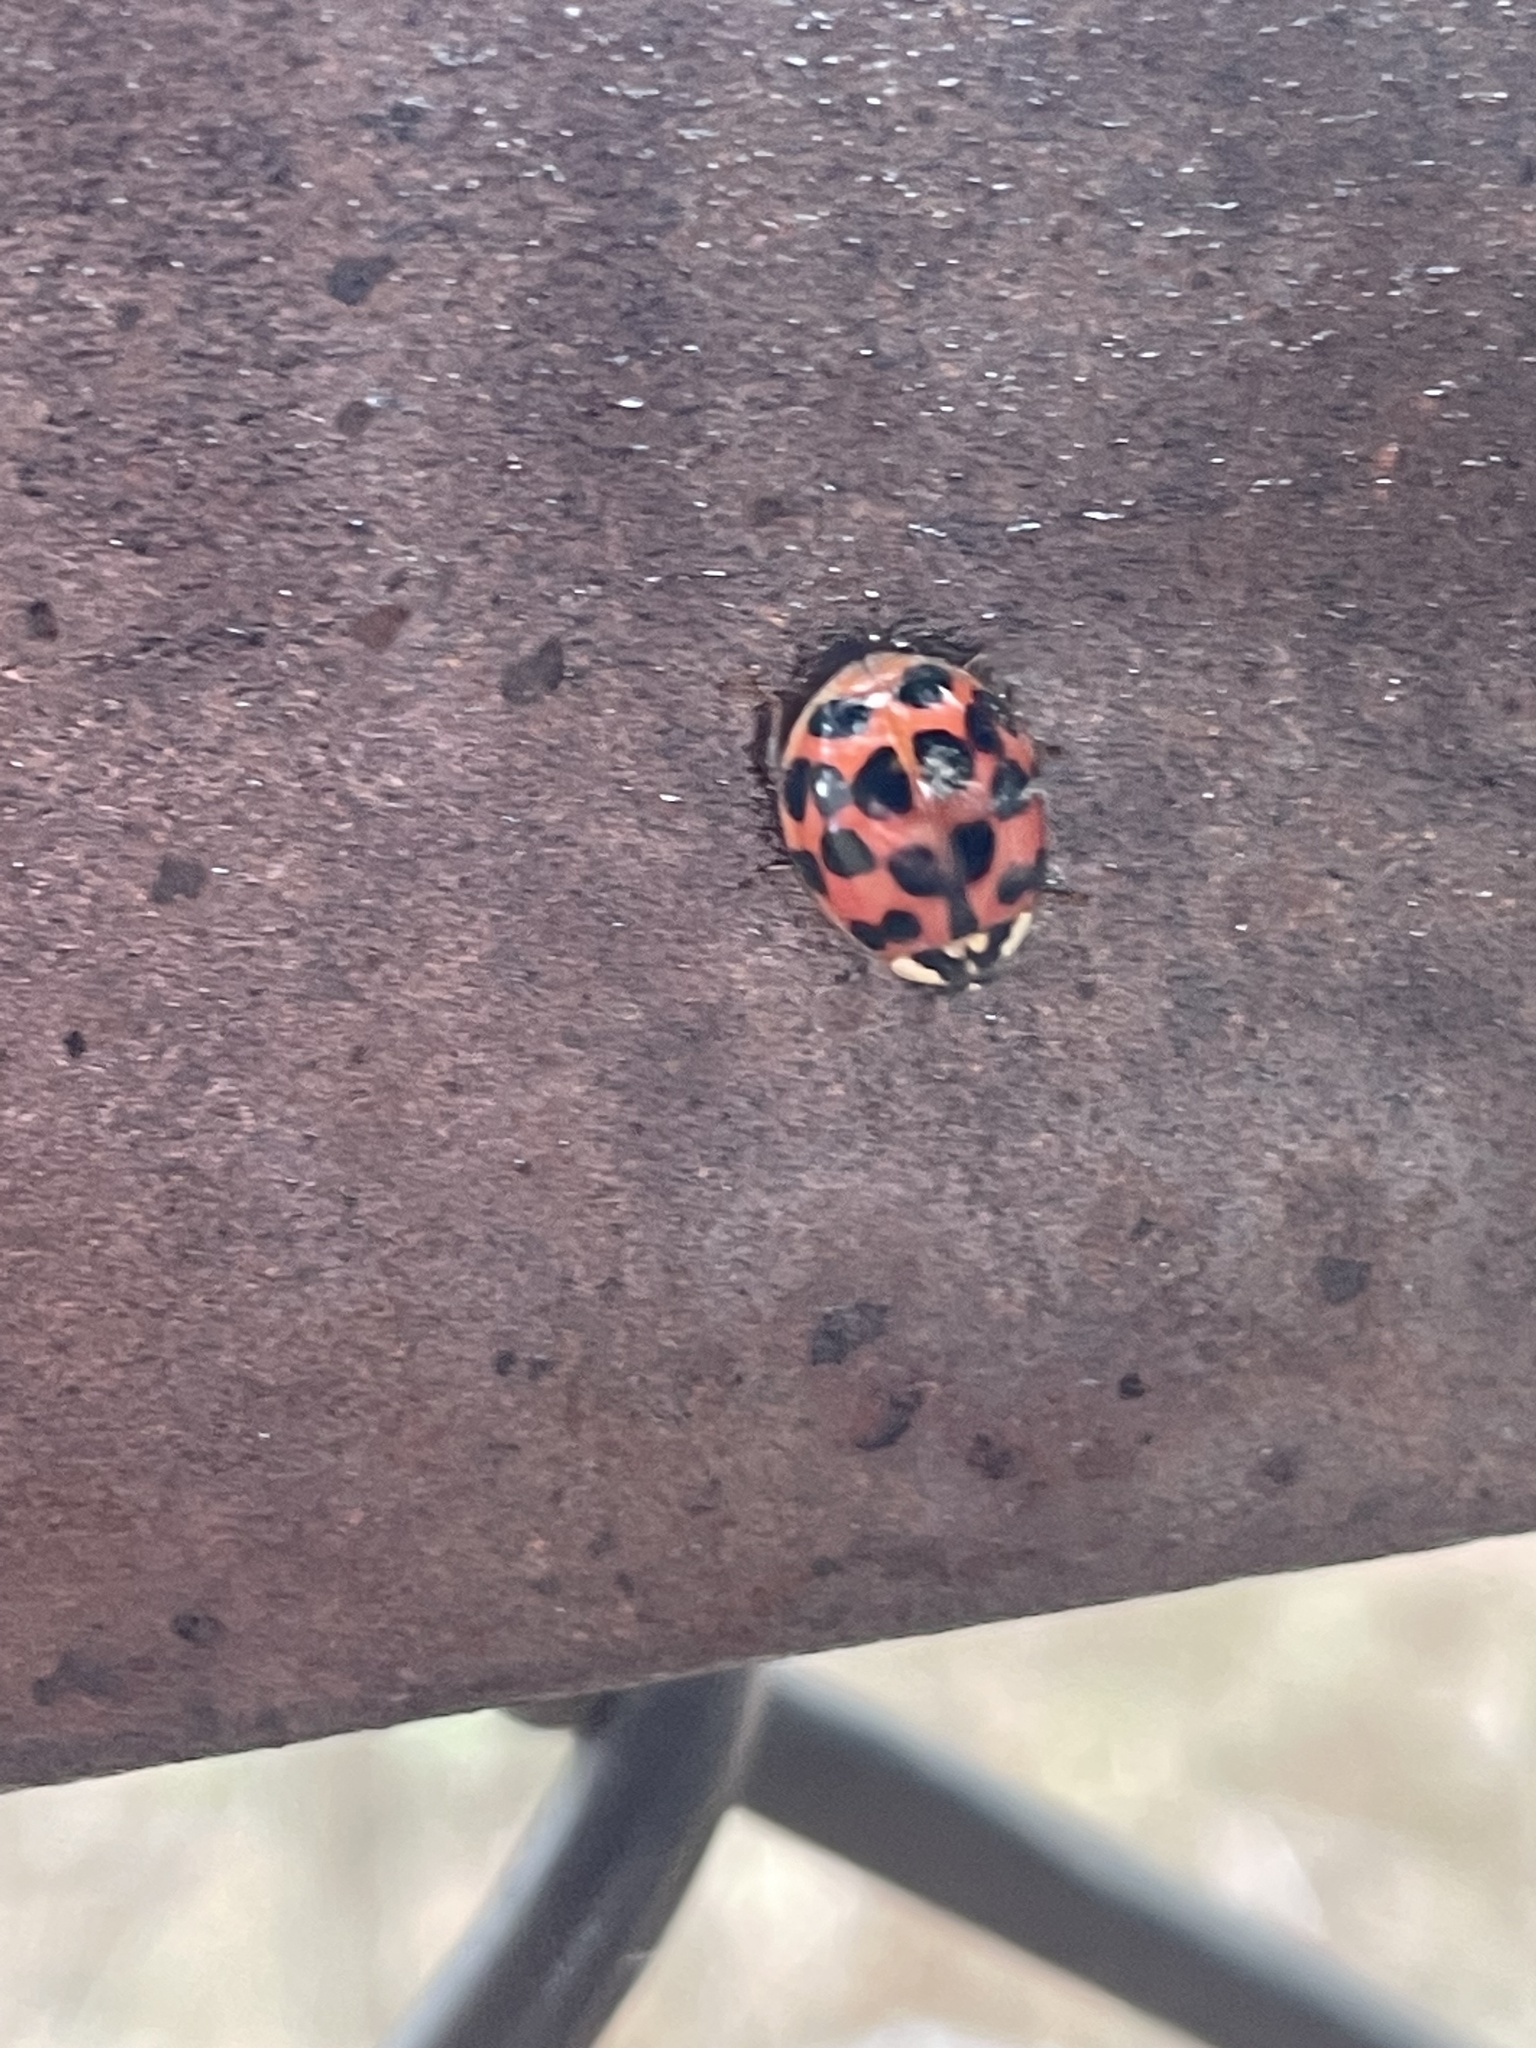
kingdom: Animalia
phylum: Arthropoda
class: Insecta
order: Coleoptera
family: Coccinellidae
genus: Harmonia
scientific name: Harmonia axyridis
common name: Harlequin ladybird
